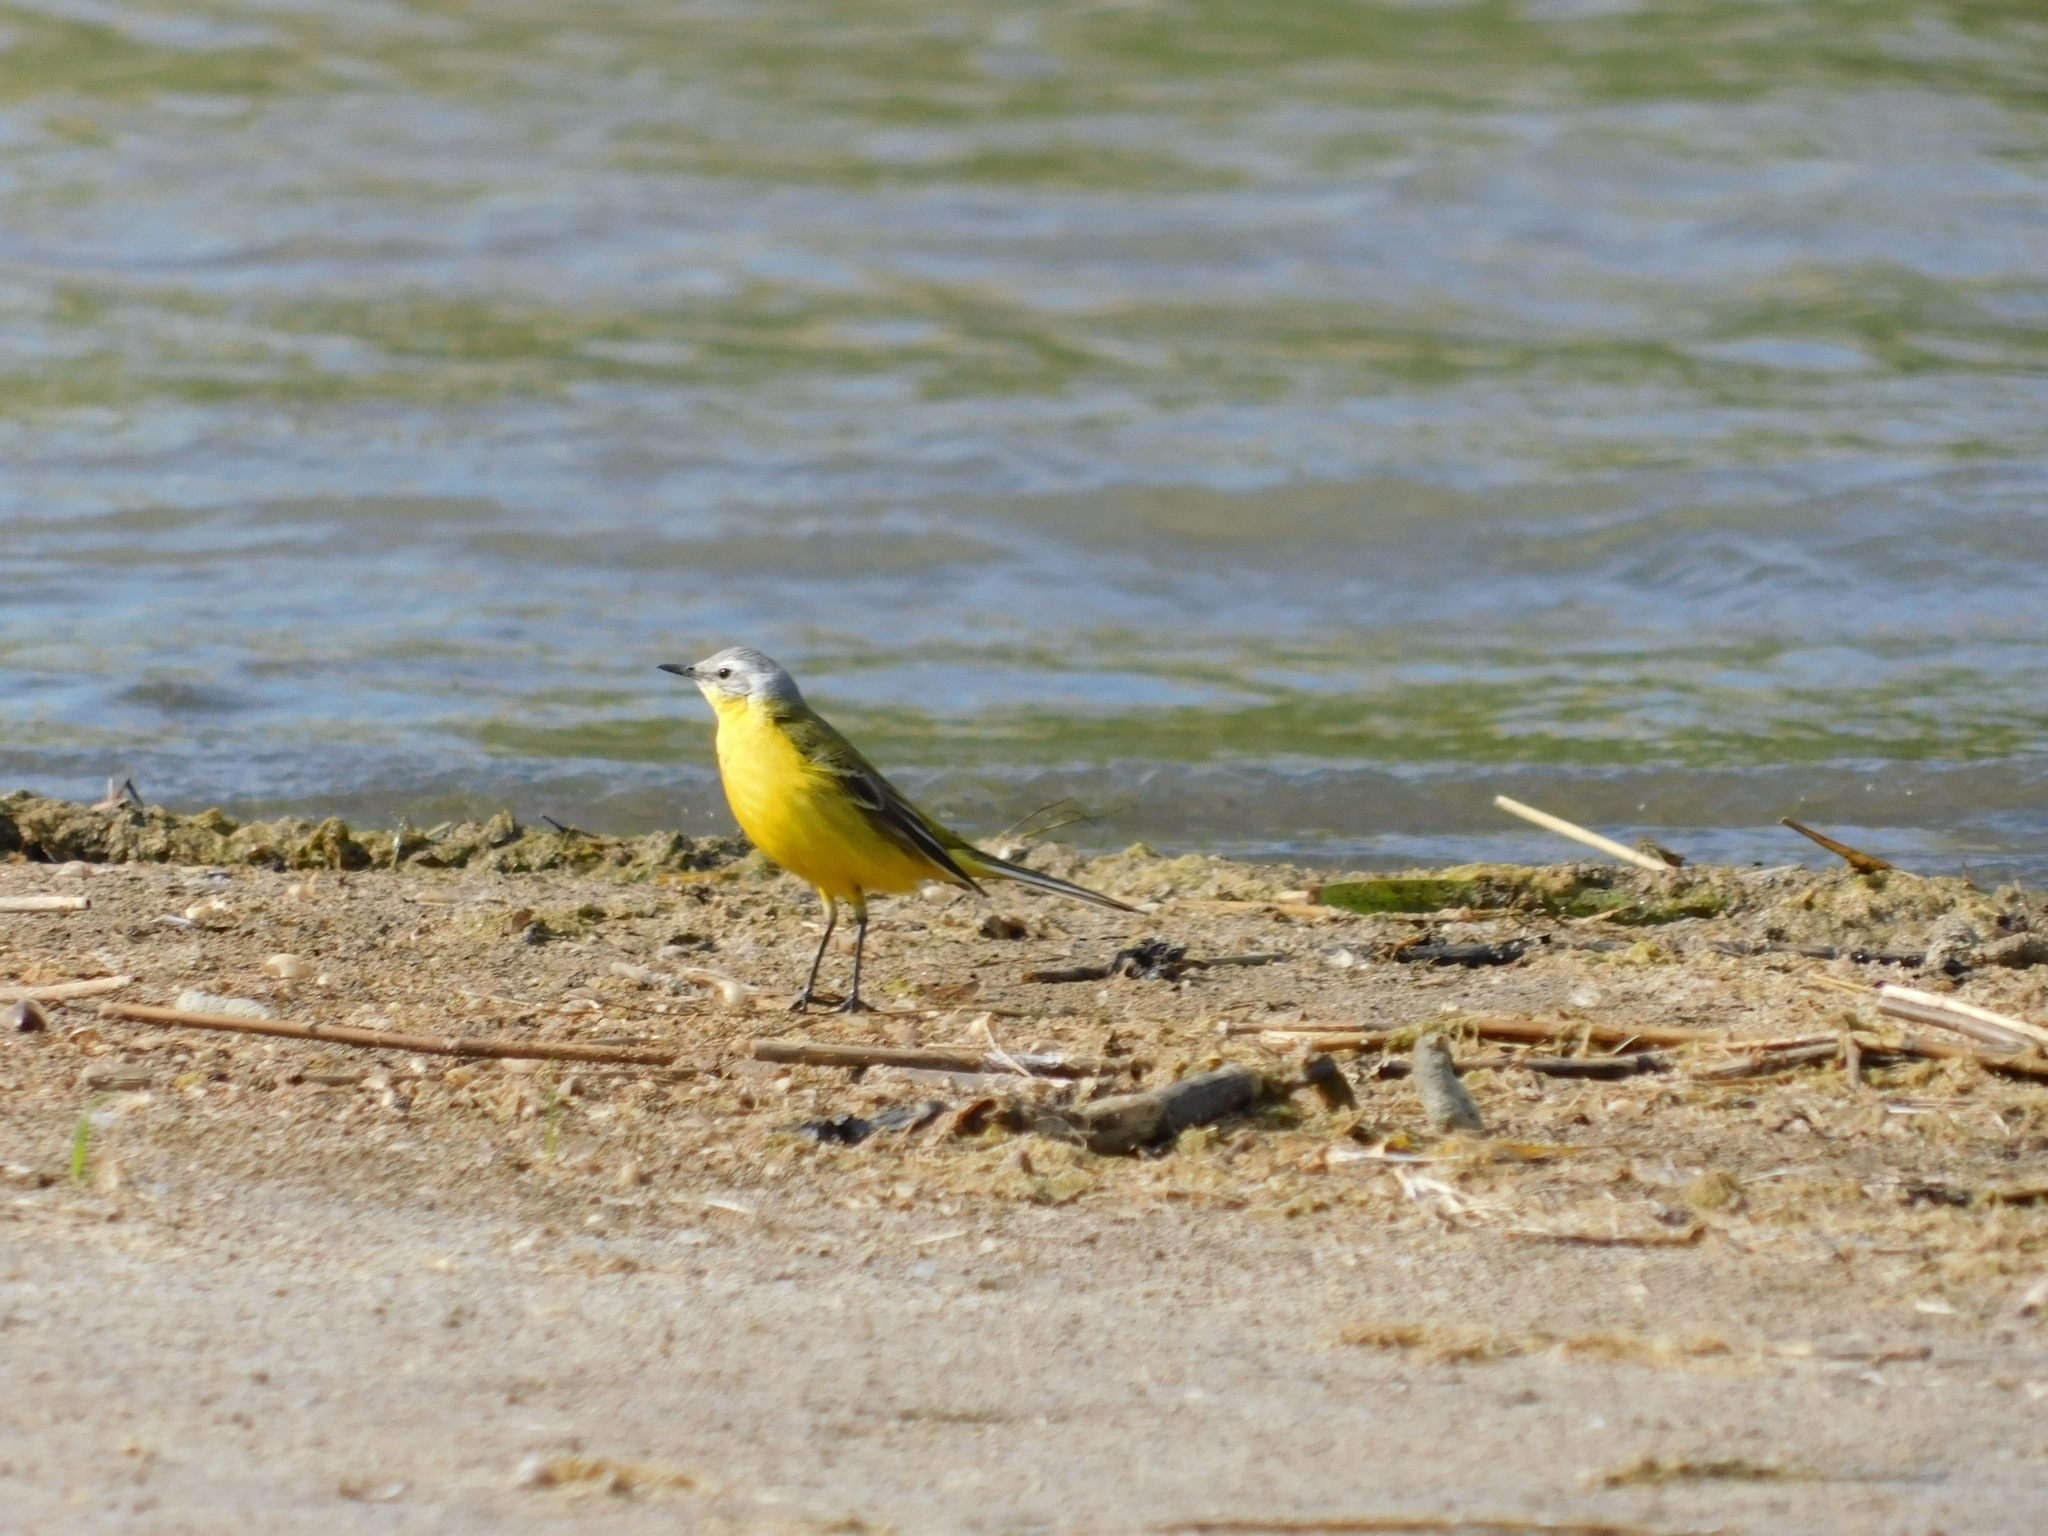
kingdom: Animalia
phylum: Chordata
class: Aves
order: Passeriformes
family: Motacillidae
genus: Motacilla
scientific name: Motacilla flava
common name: Western yellow wagtail
